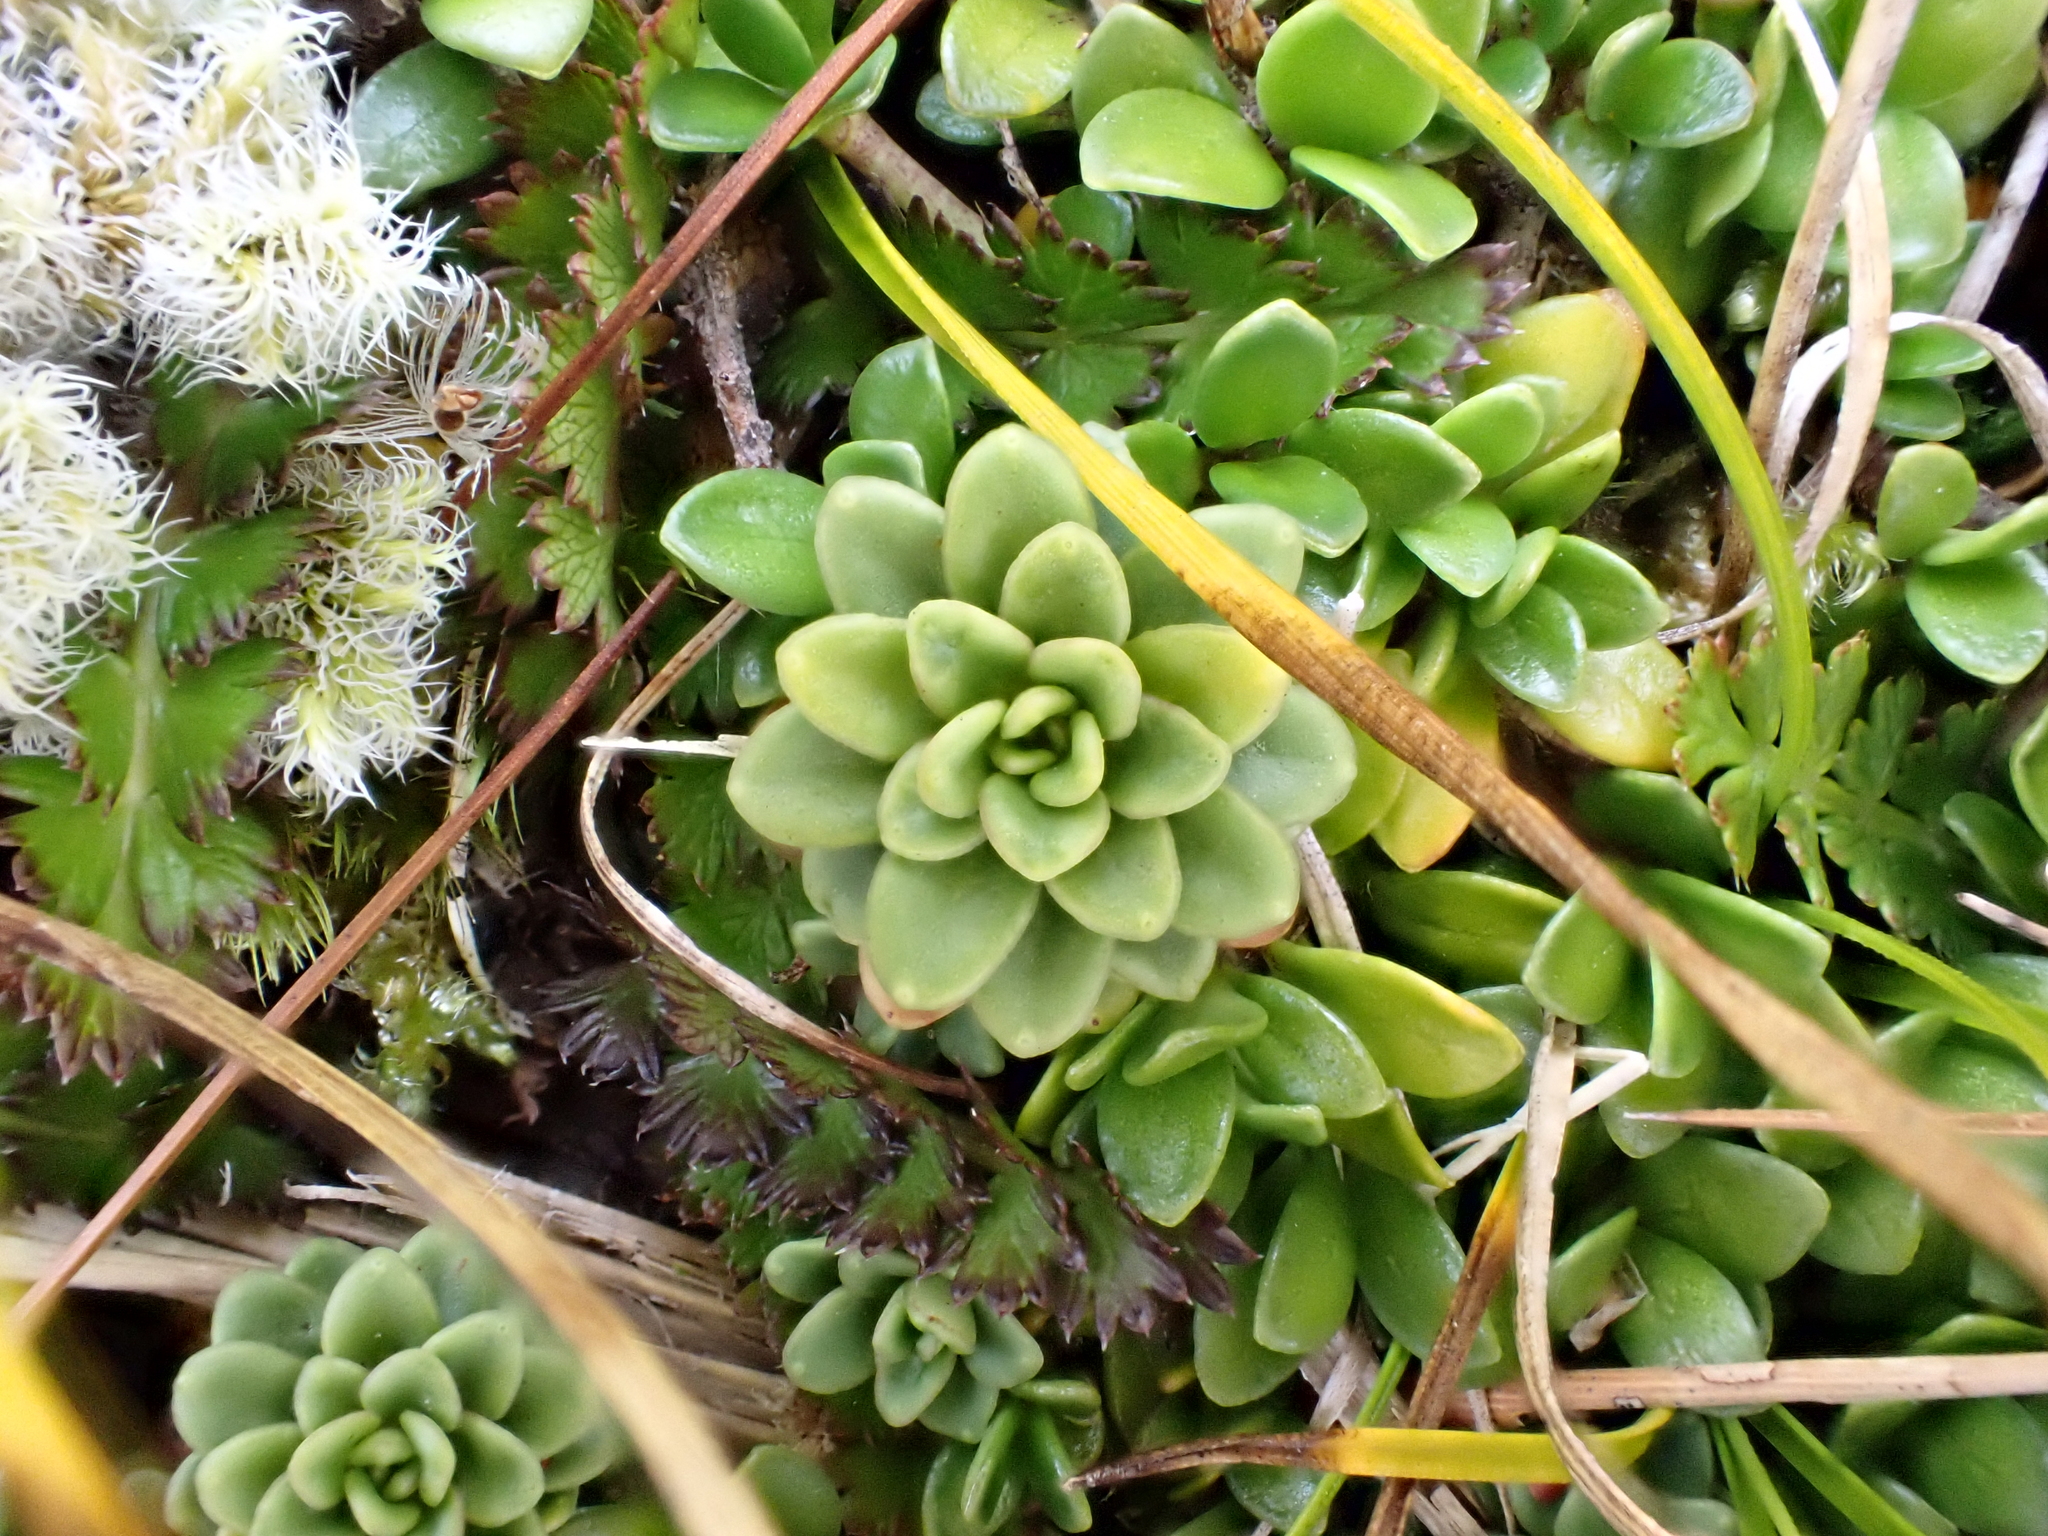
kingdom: Plantae
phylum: Tracheophyta
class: Magnoliopsida
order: Asterales
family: Stylidiaceae
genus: Forstera
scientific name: Forstera tenella
